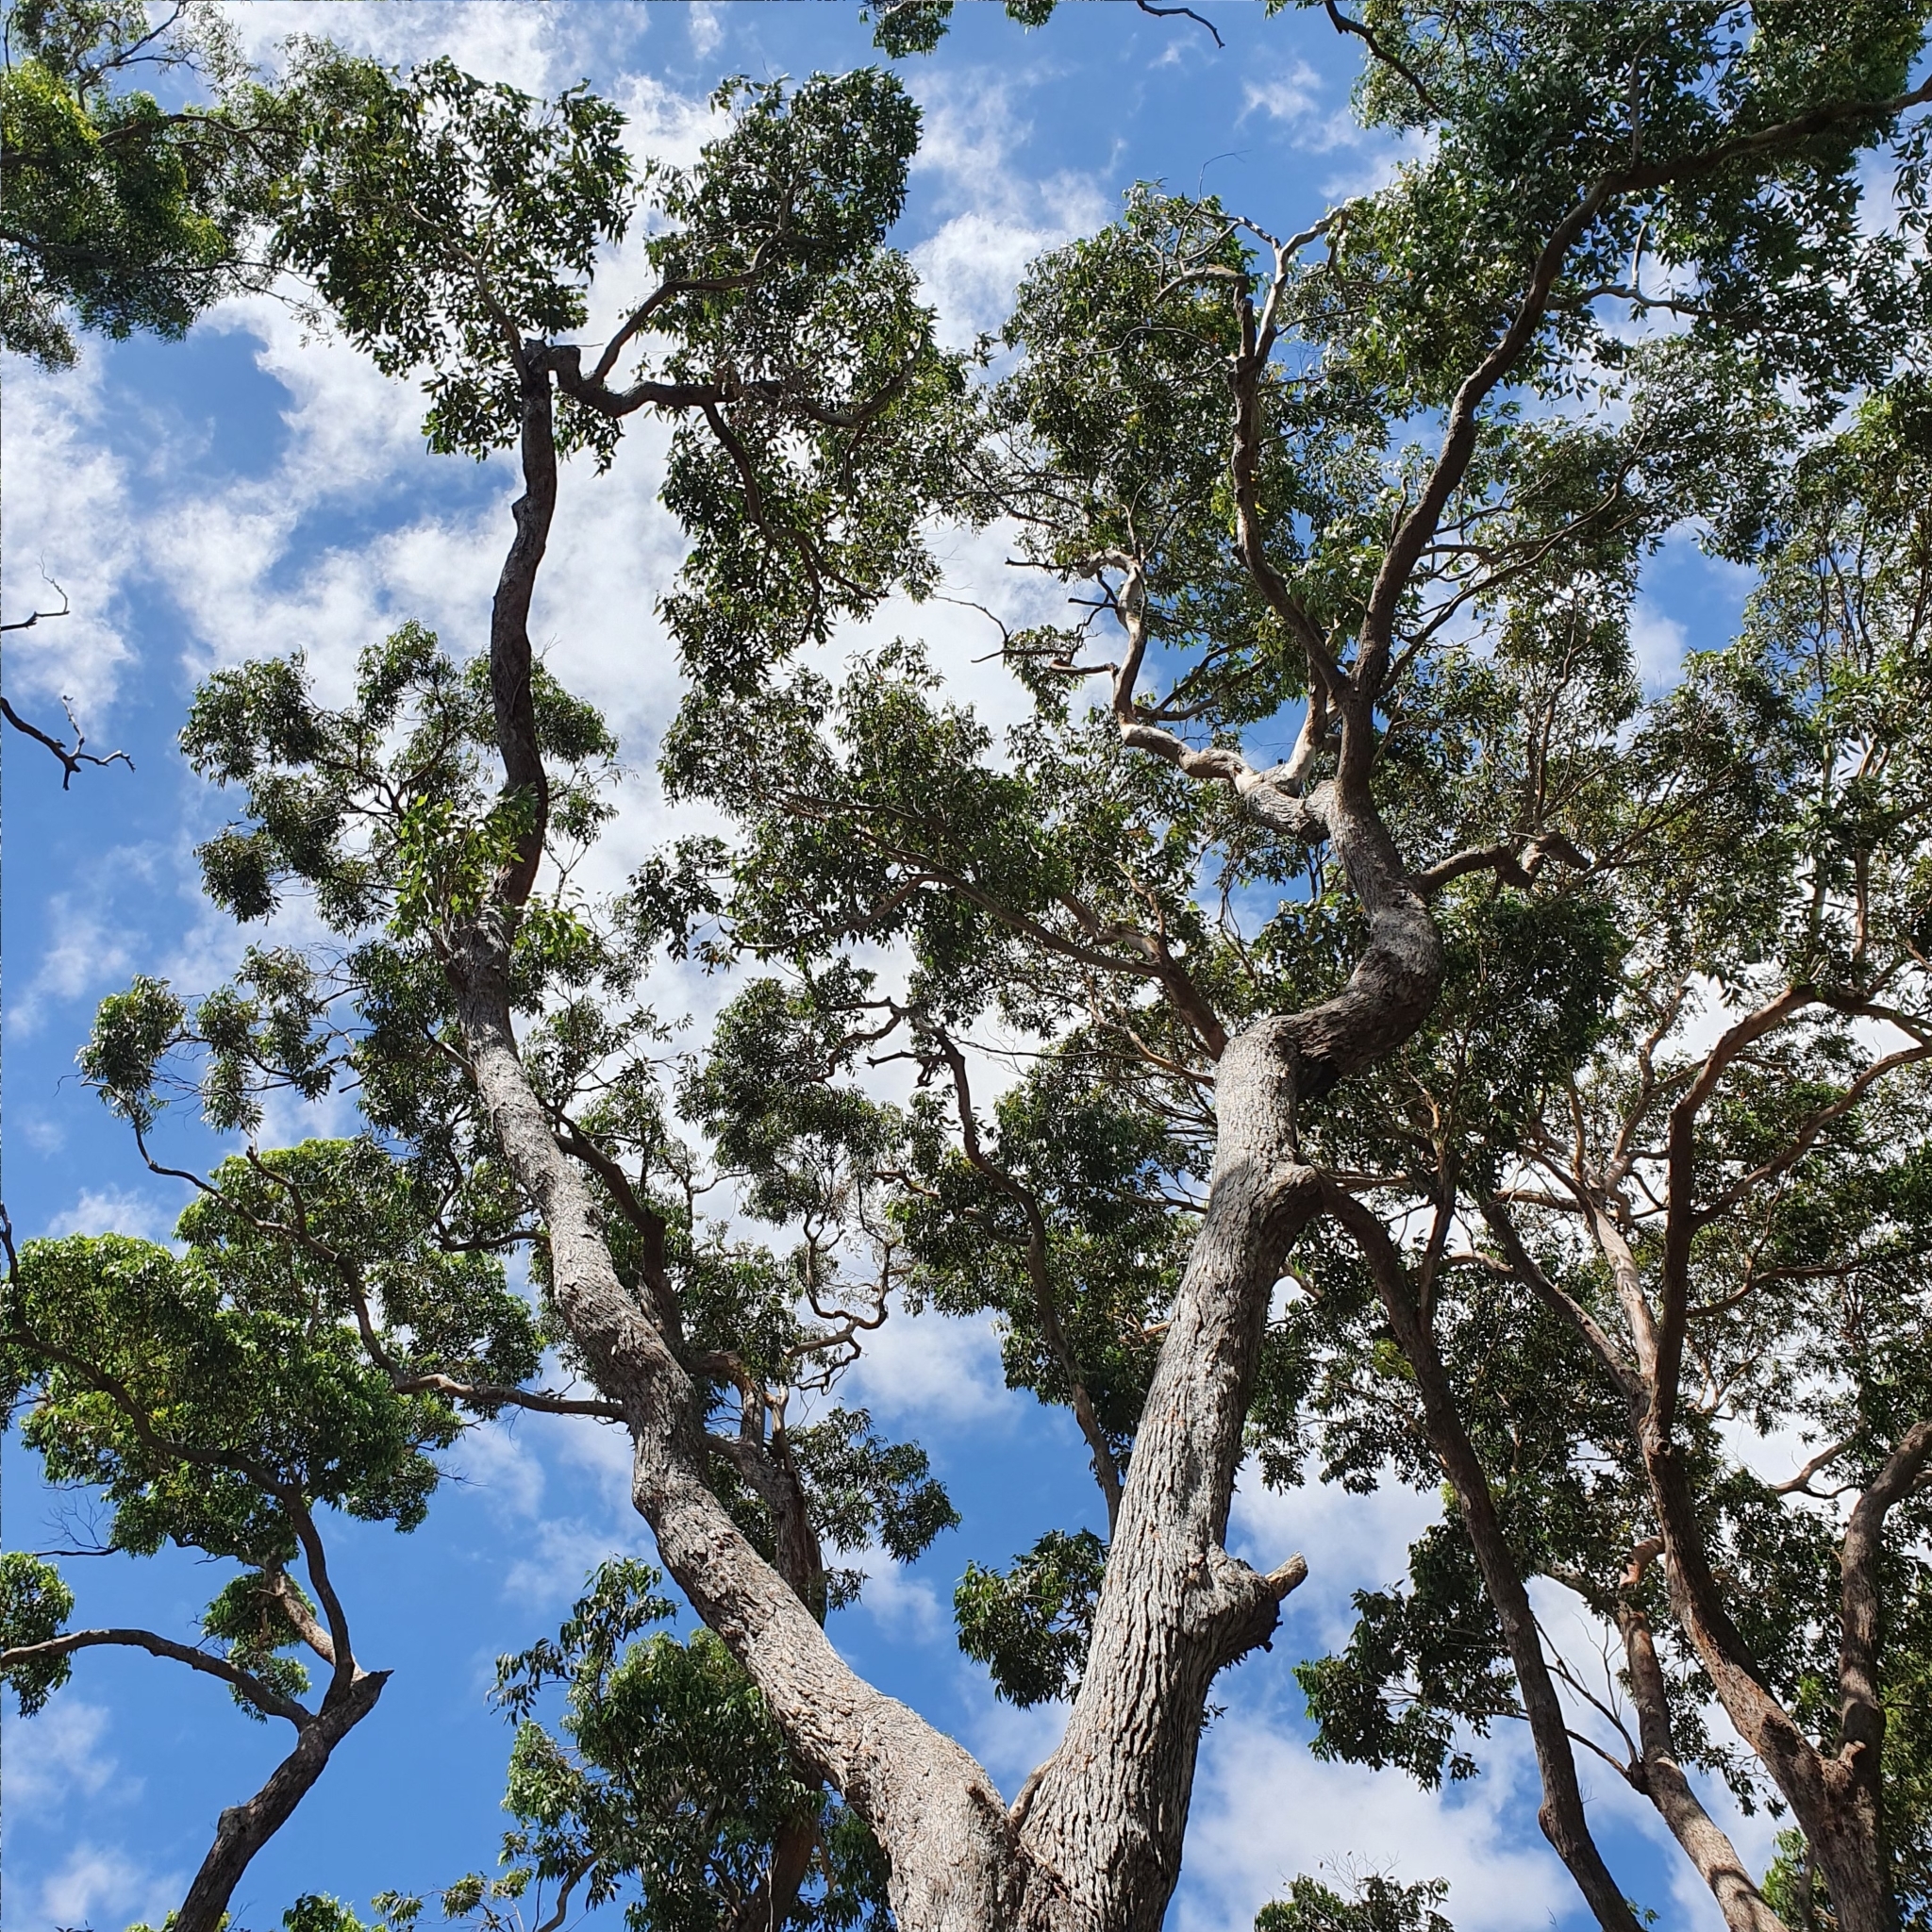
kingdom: Plantae
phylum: Tracheophyta
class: Magnoliopsida
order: Myrtales
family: Myrtaceae
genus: Eucalyptus
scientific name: Eucalyptus botryoides
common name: Bangalay
